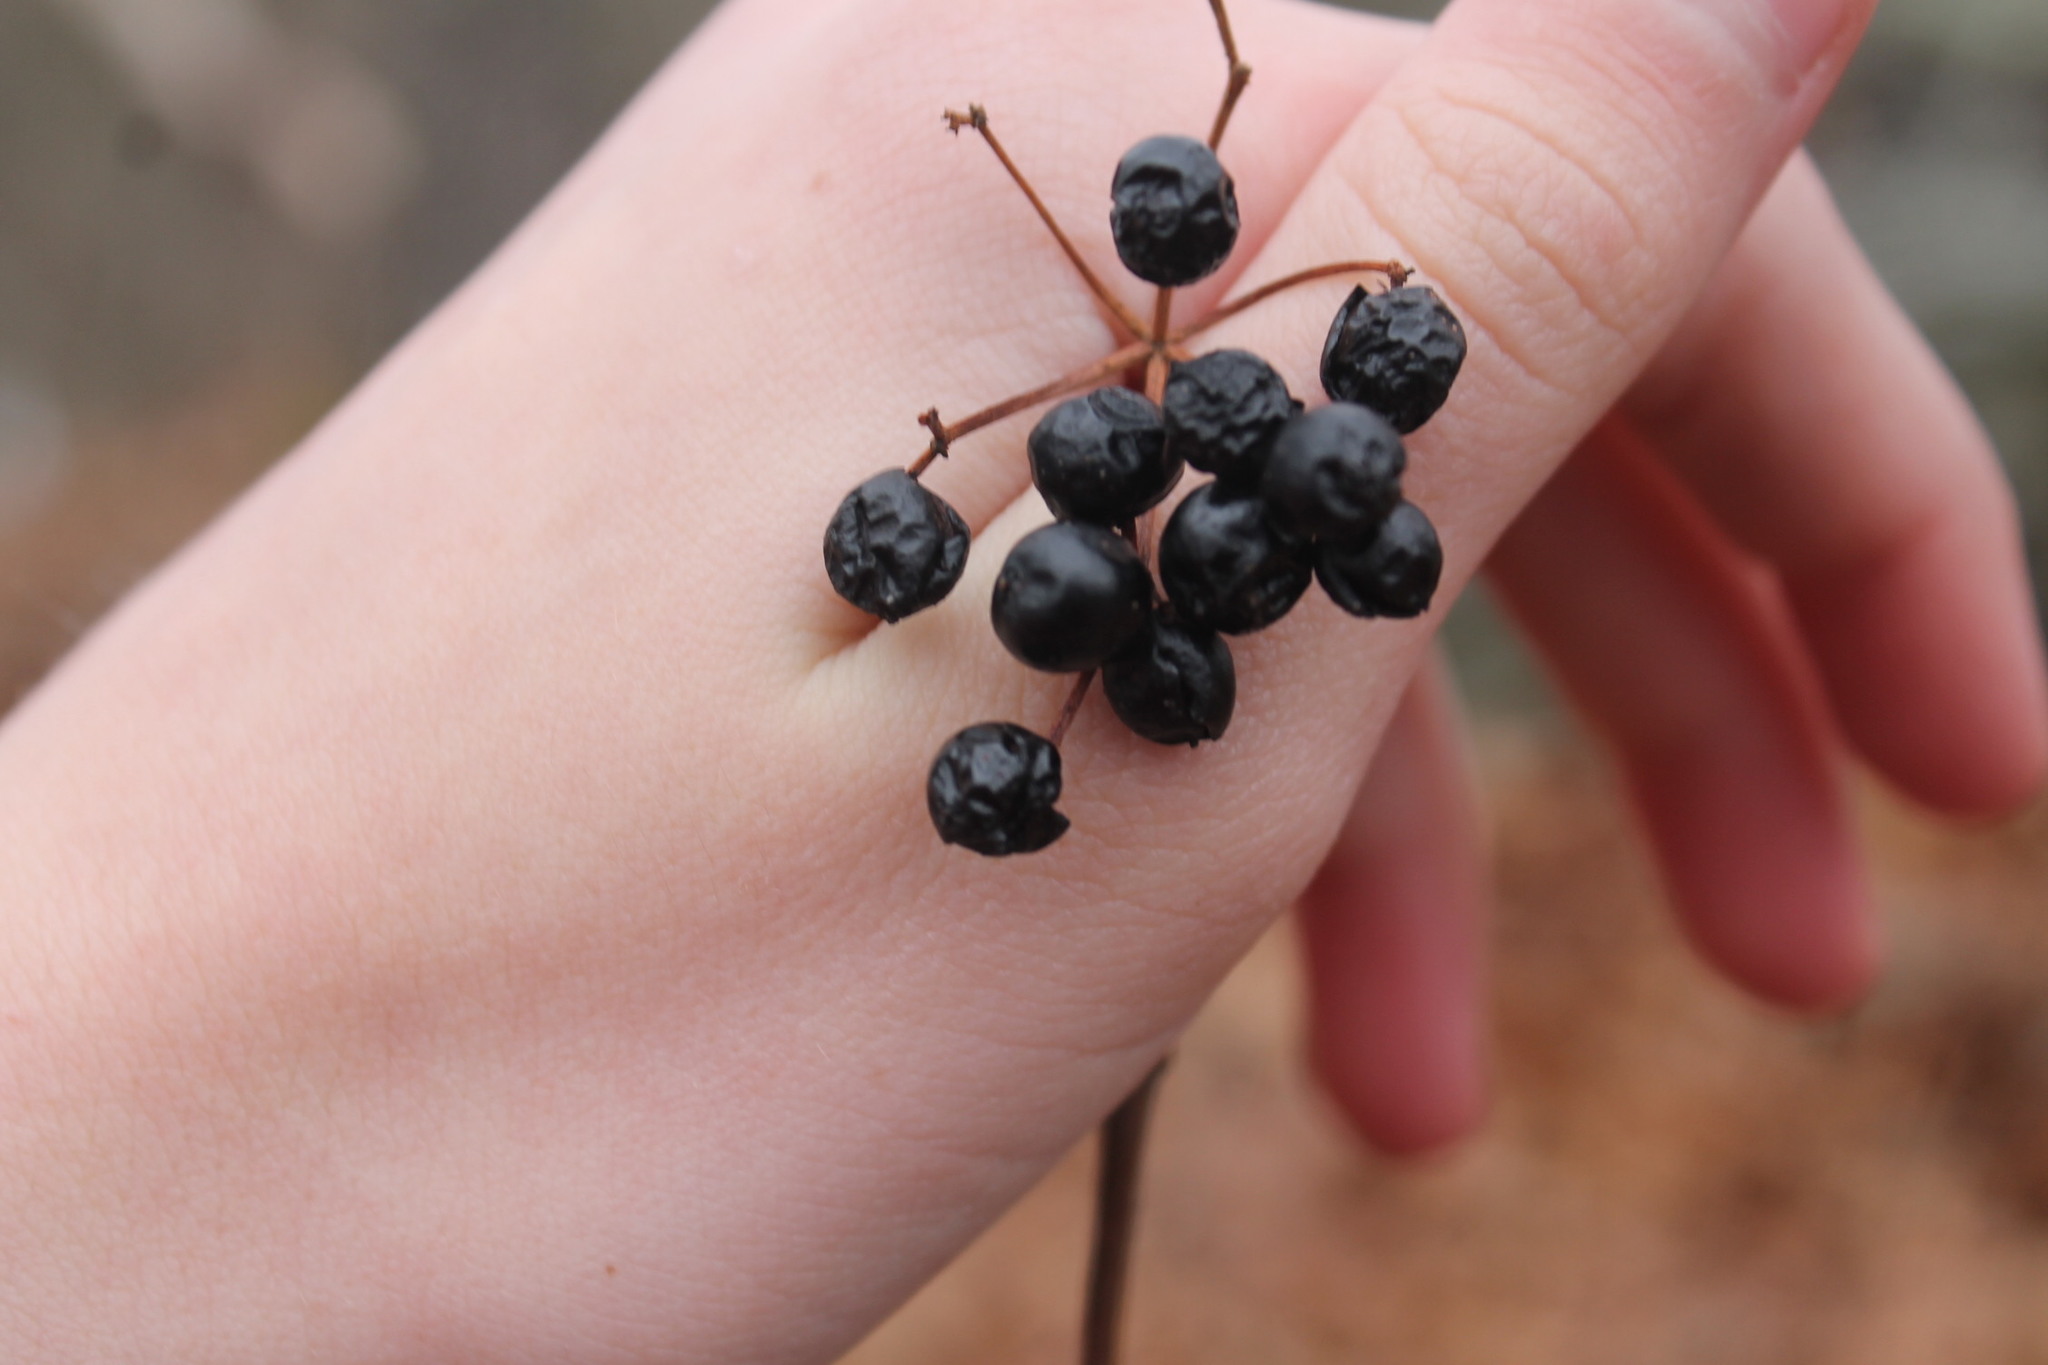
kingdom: Plantae
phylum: Tracheophyta
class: Magnoliopsida
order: Dipsacales
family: Viburnaceae
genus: Viburnum
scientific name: Viburnum acerifolium
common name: Dockmackie
